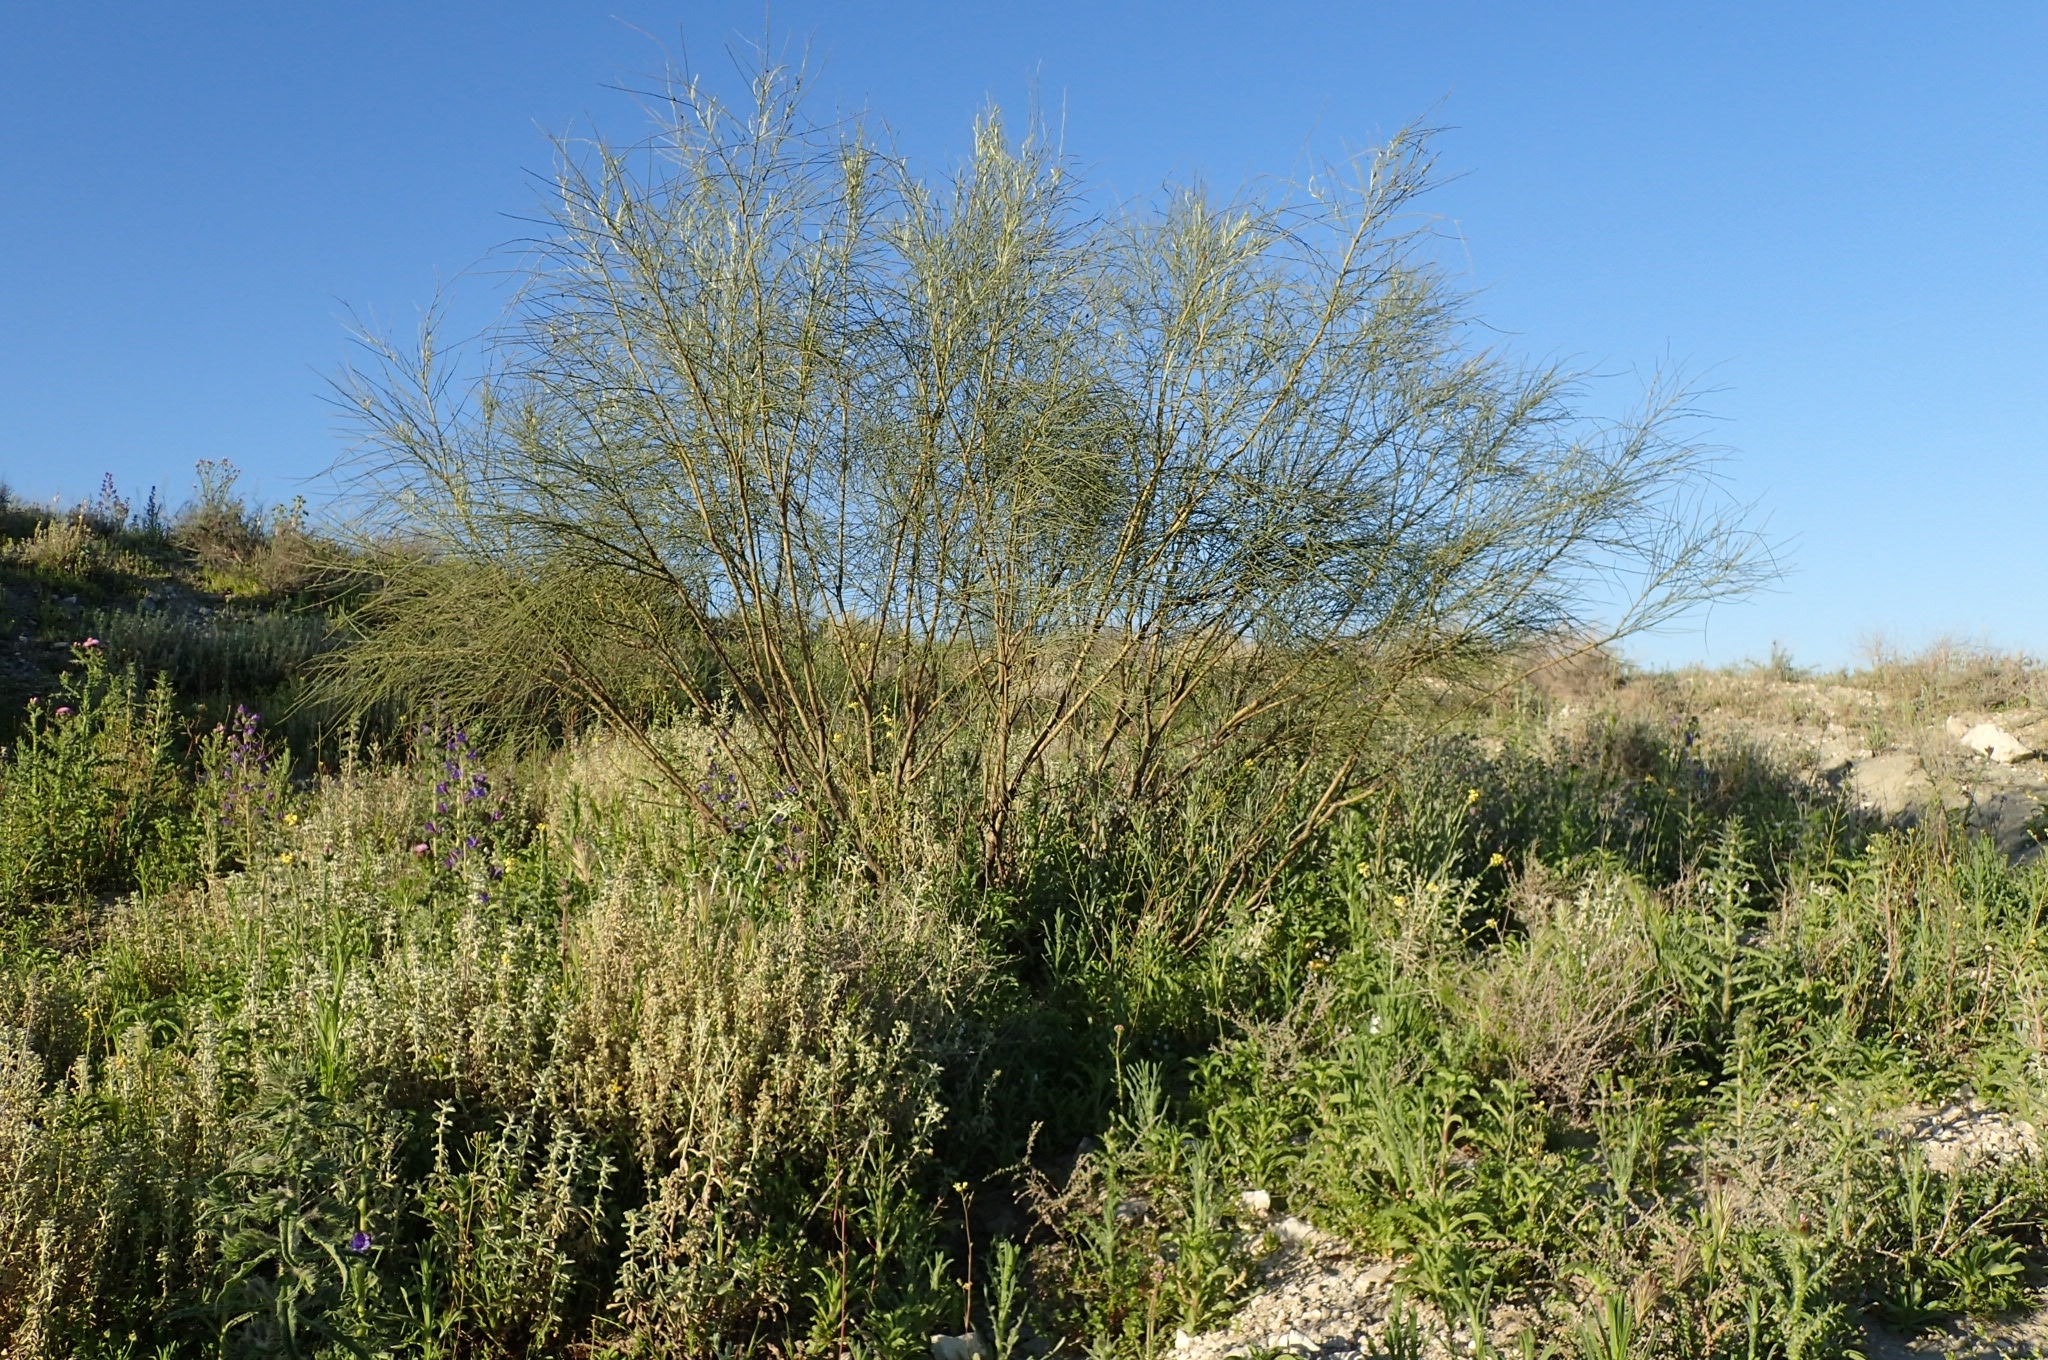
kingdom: Plantae
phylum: Tracheophyta
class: Magnoliopsida
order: Fabales
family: Fabaceae
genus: Retama
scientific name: Retama sphaerocarpa
